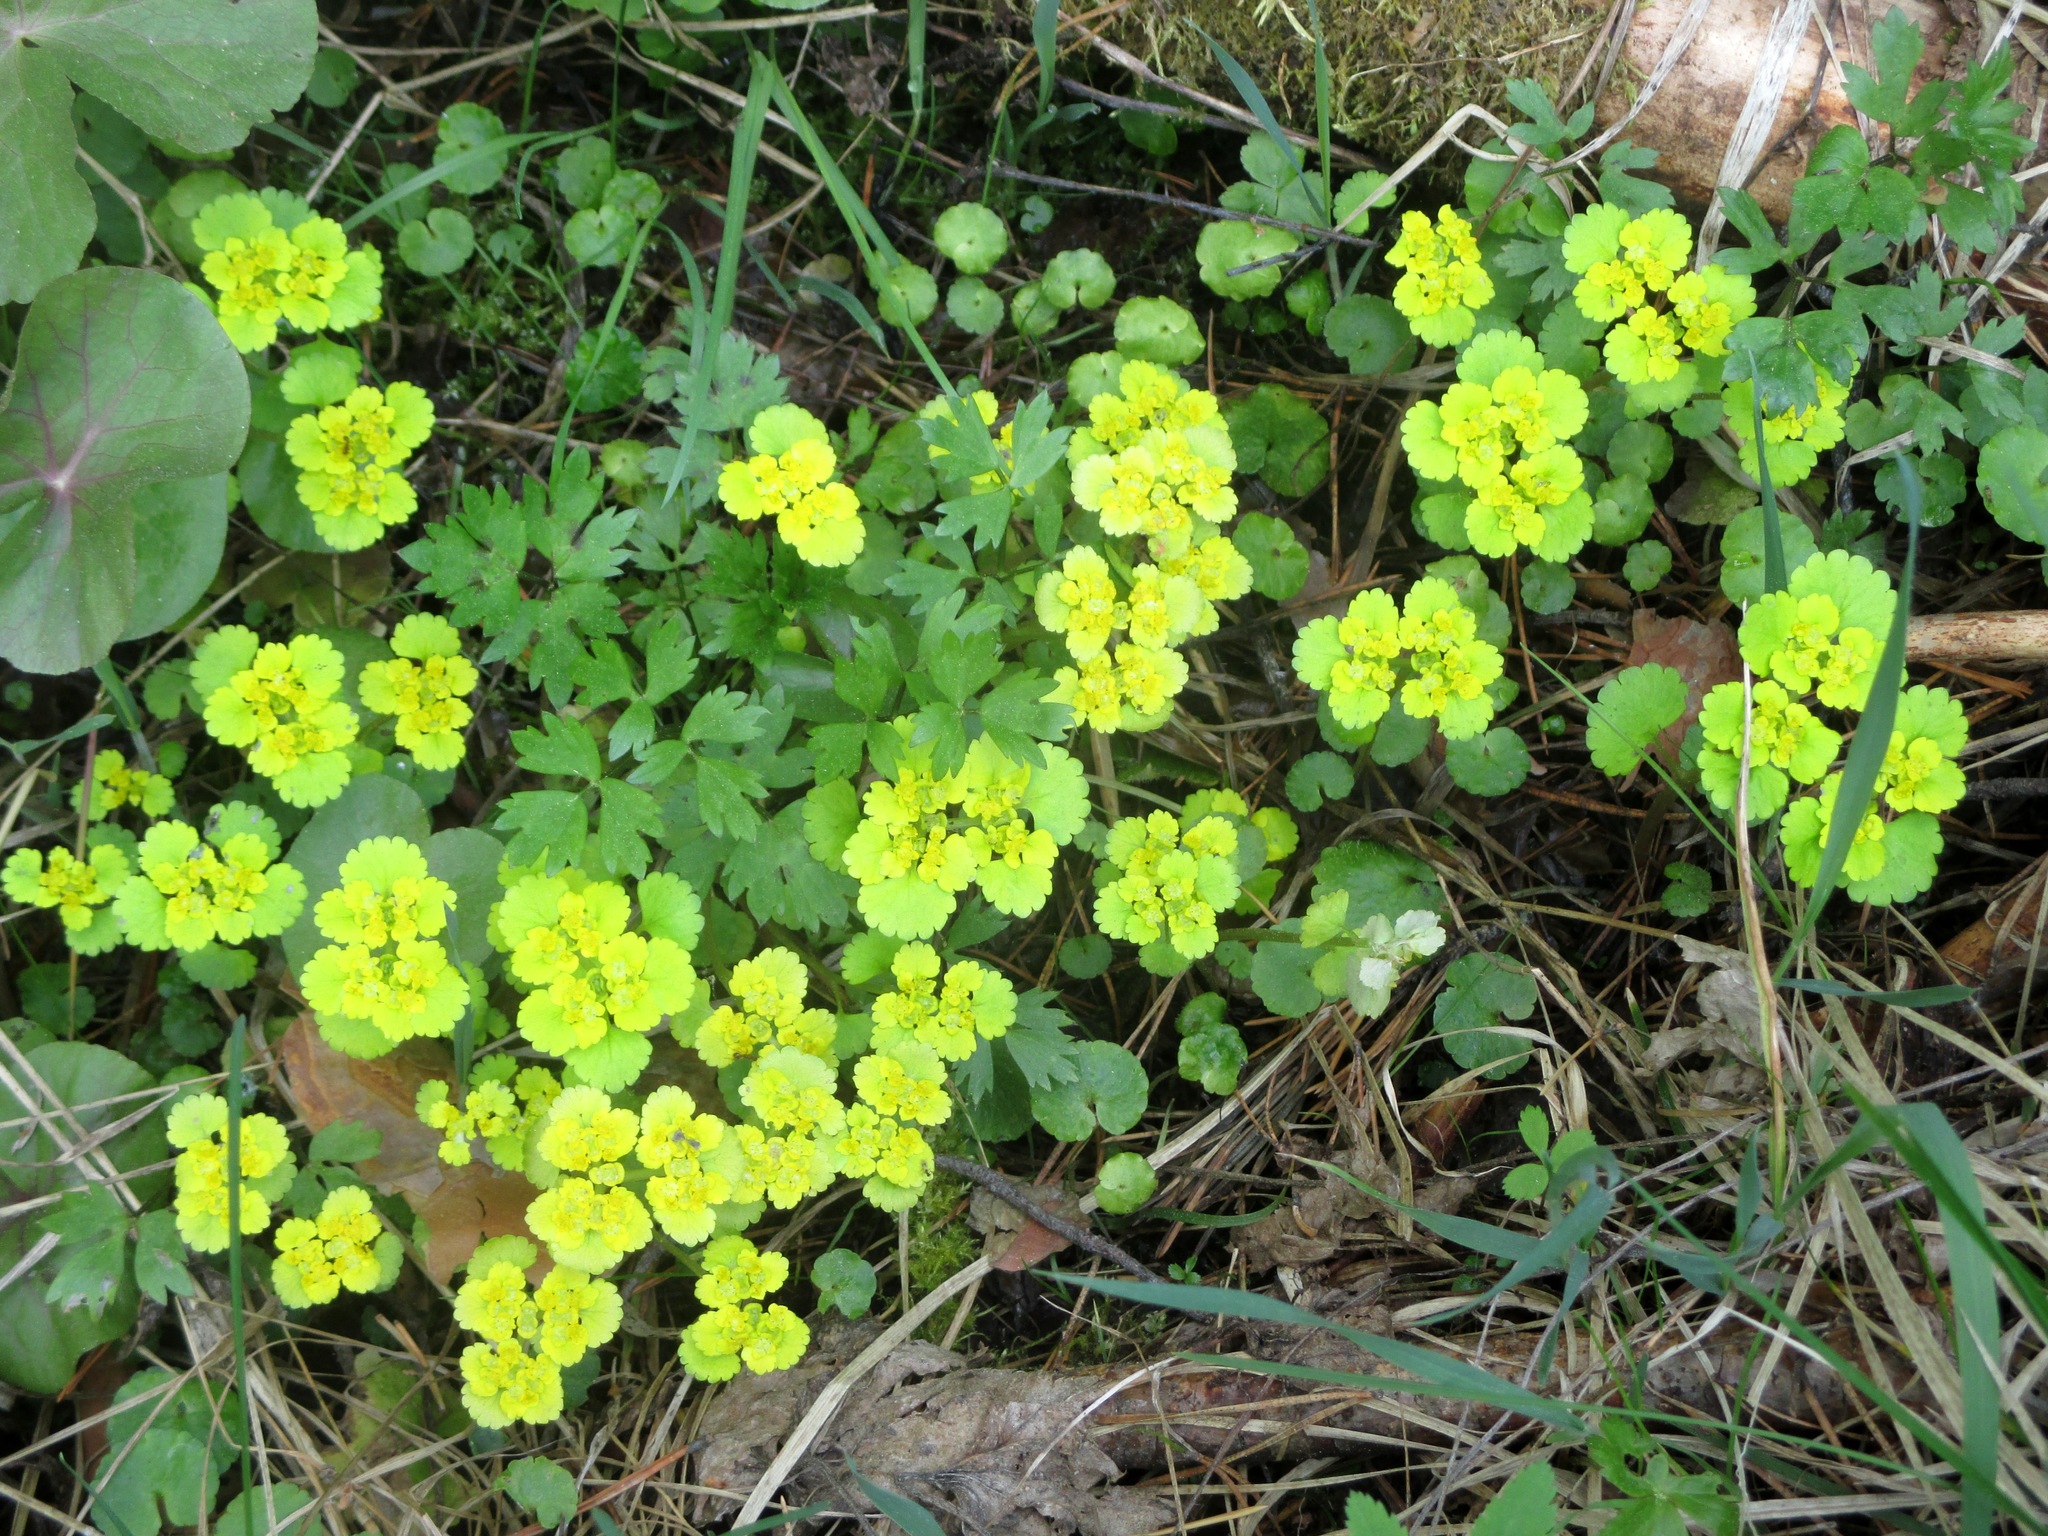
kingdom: Plantae
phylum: Tracheophyta
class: Magnoliopsida
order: Saxifragales
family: Saxifragaceae
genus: Chrysosplenium
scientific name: Chrysosplenium alternifolium
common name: Alternate-leaved golden-saxifrage
